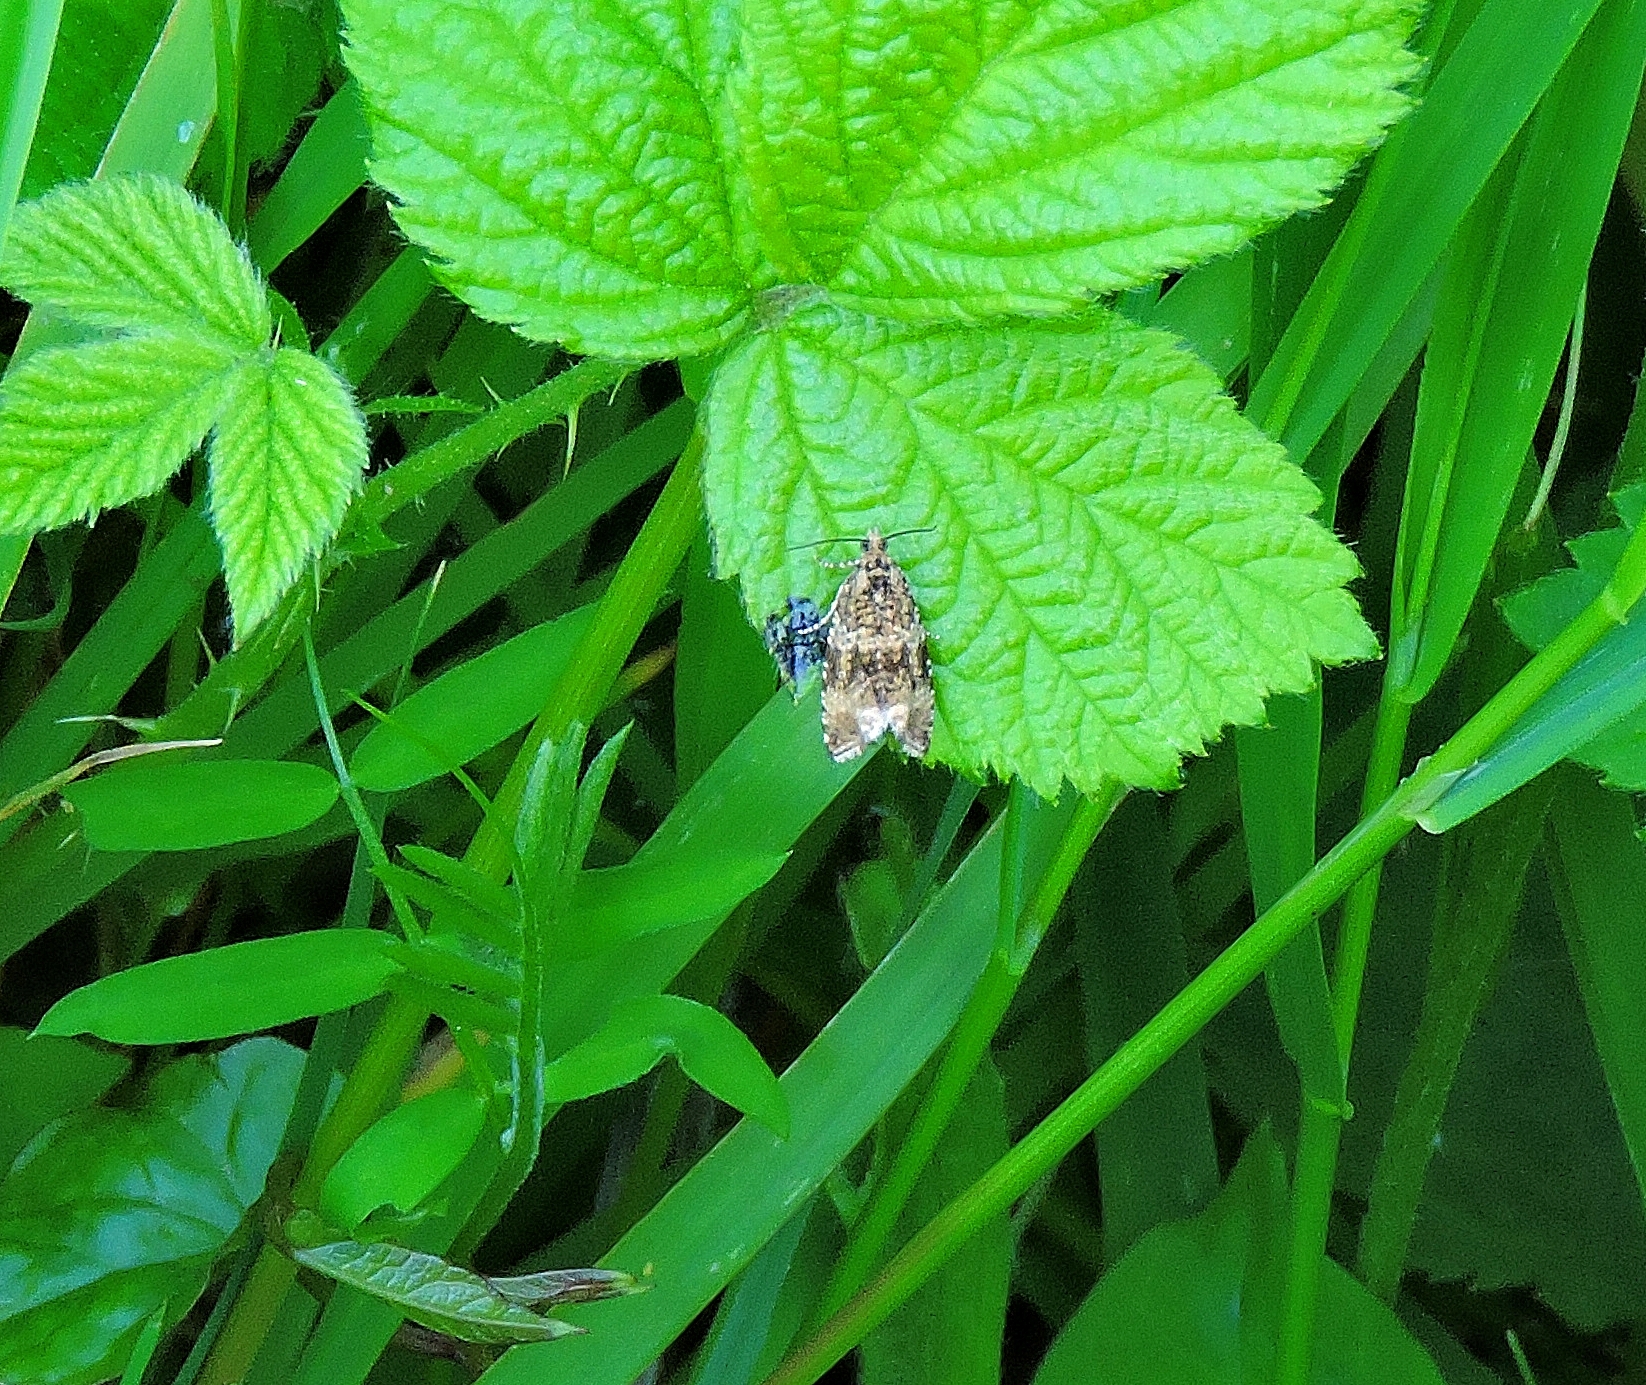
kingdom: Animalia
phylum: Arthropoda
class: Insecta
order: Lepidoptera
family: Tortricidae
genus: Syricoris
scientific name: Syricoris lacunana
